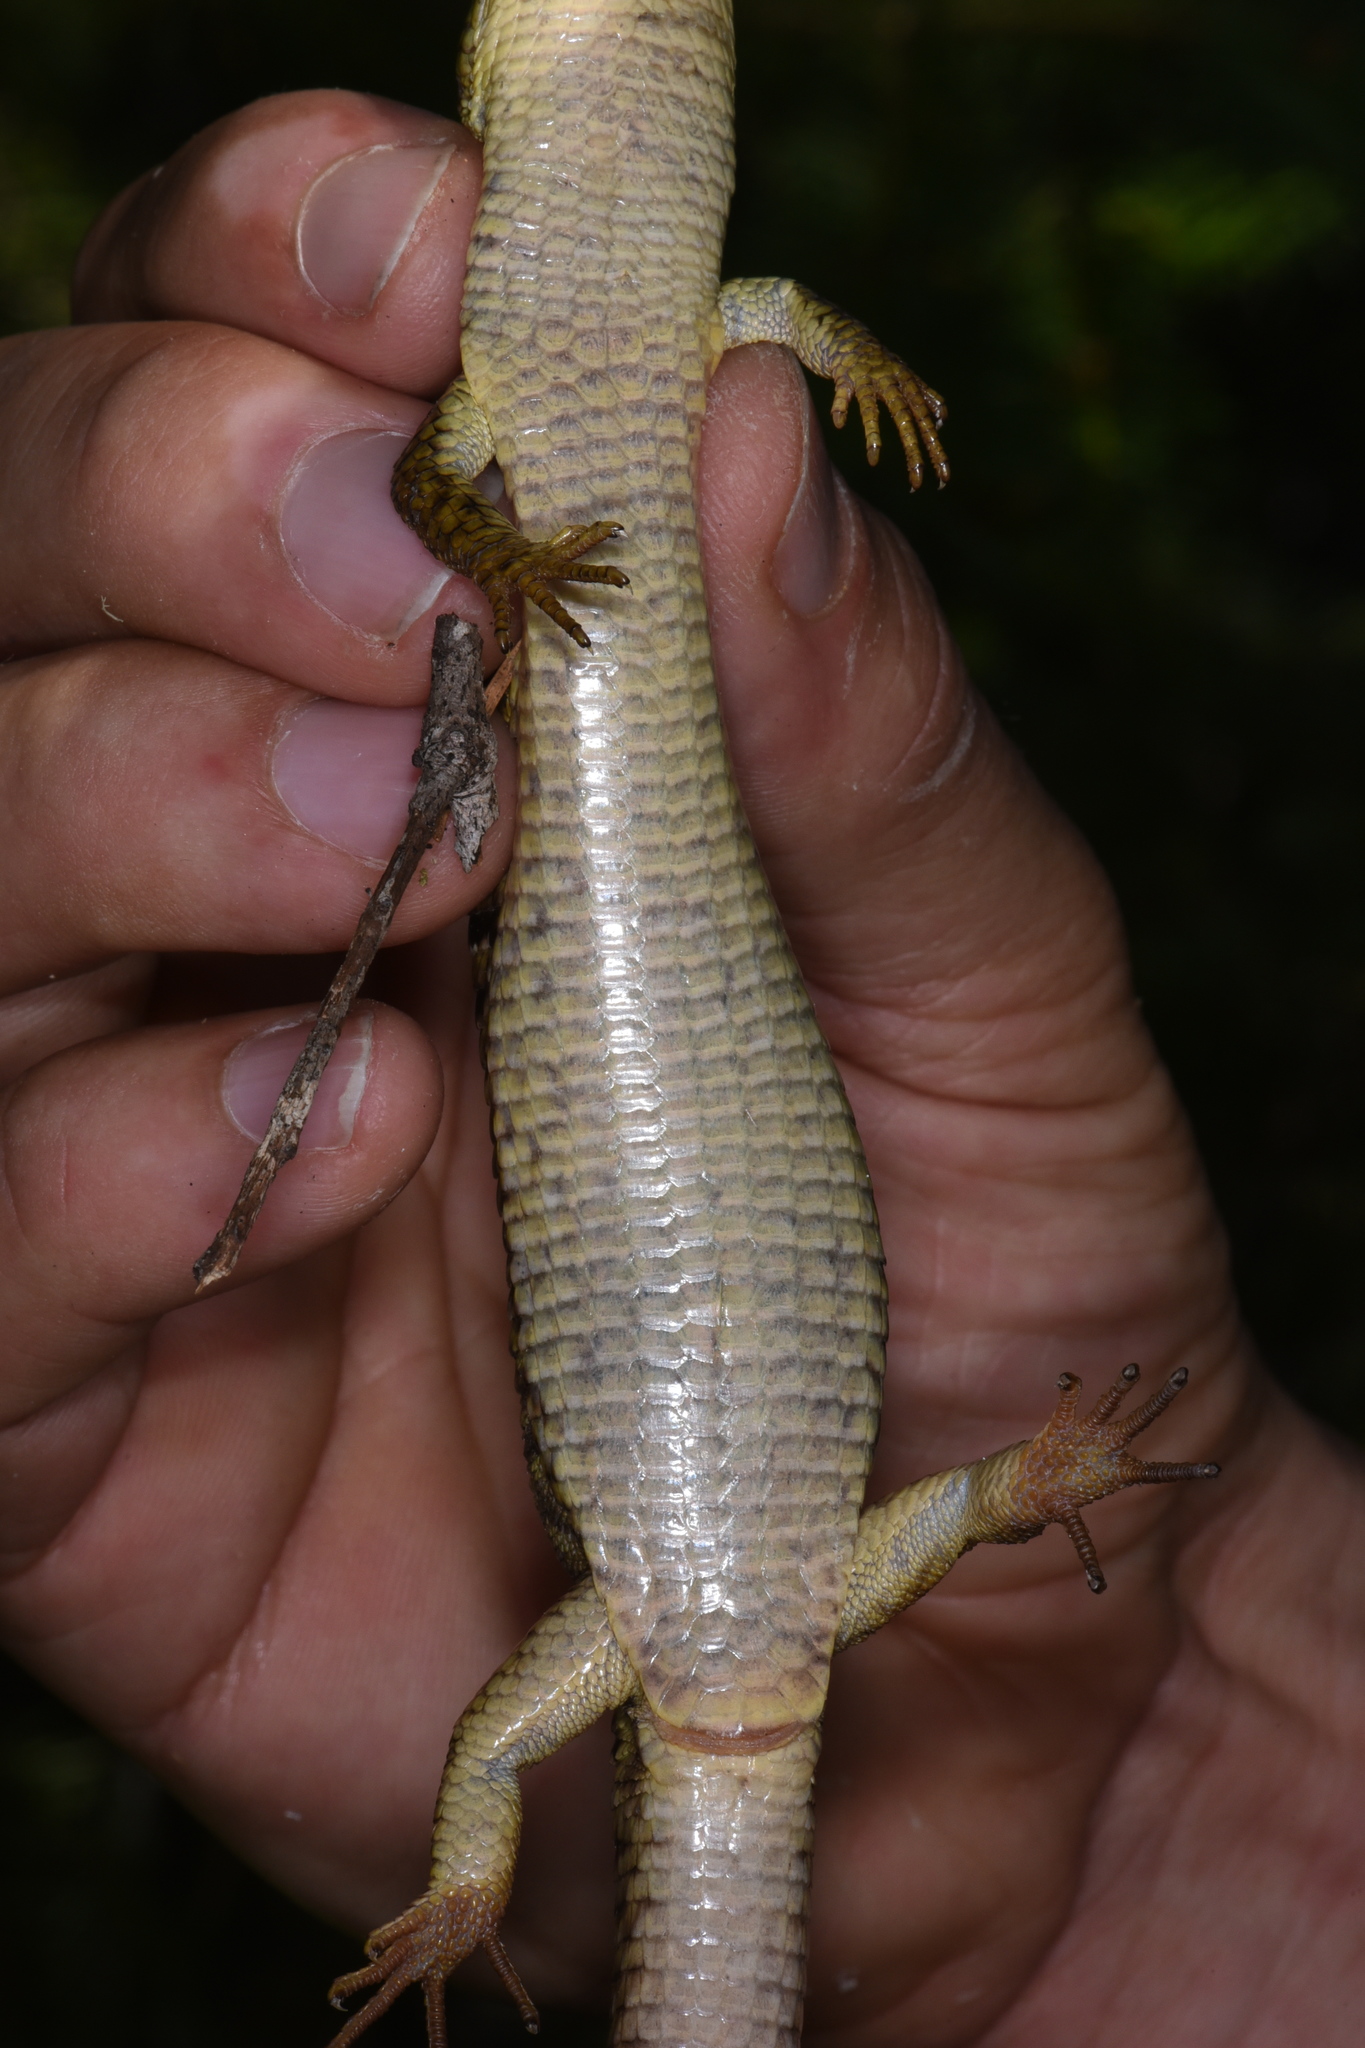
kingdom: Animalia
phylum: Chordata
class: Squamata
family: Anguidae
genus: Elgaria
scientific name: Elgaria coerulea
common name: Northern alligator lizard
